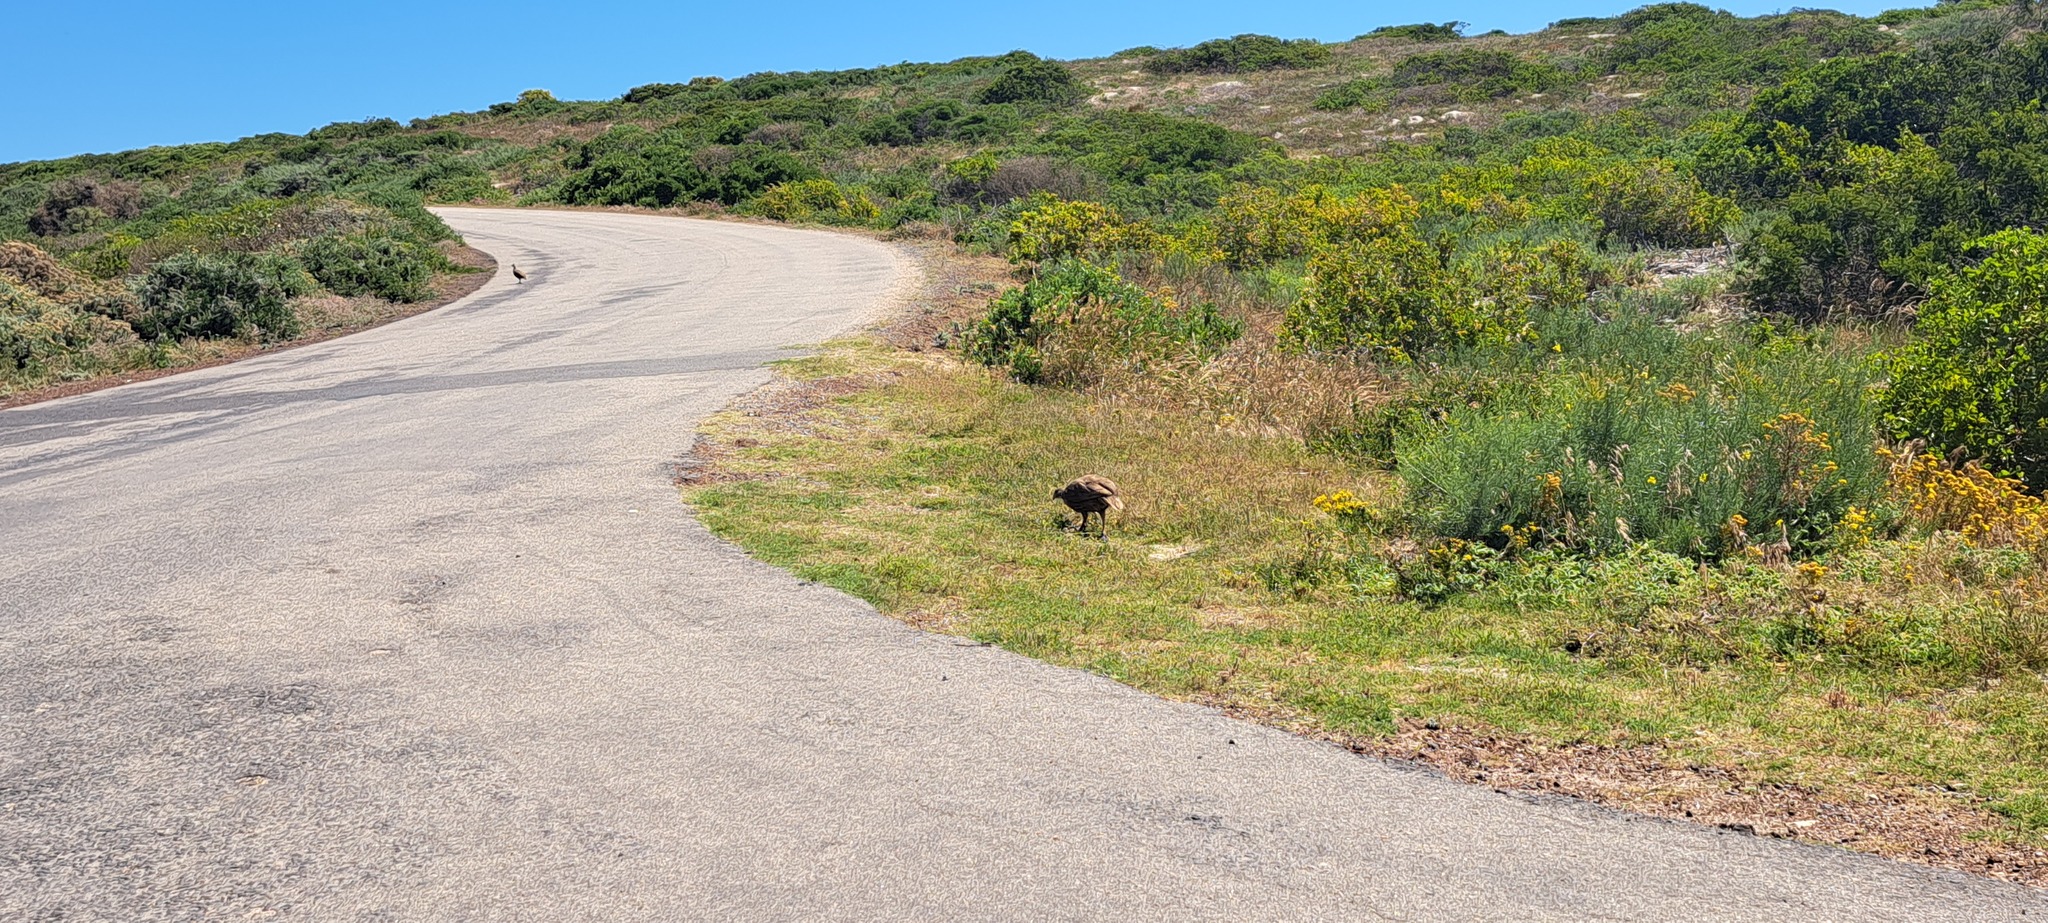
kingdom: Animalia
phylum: Chordata
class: Aves
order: Galliformes
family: Phasianidae
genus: Pternistis
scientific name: Pternistis capensis
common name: Cape spurfowl
